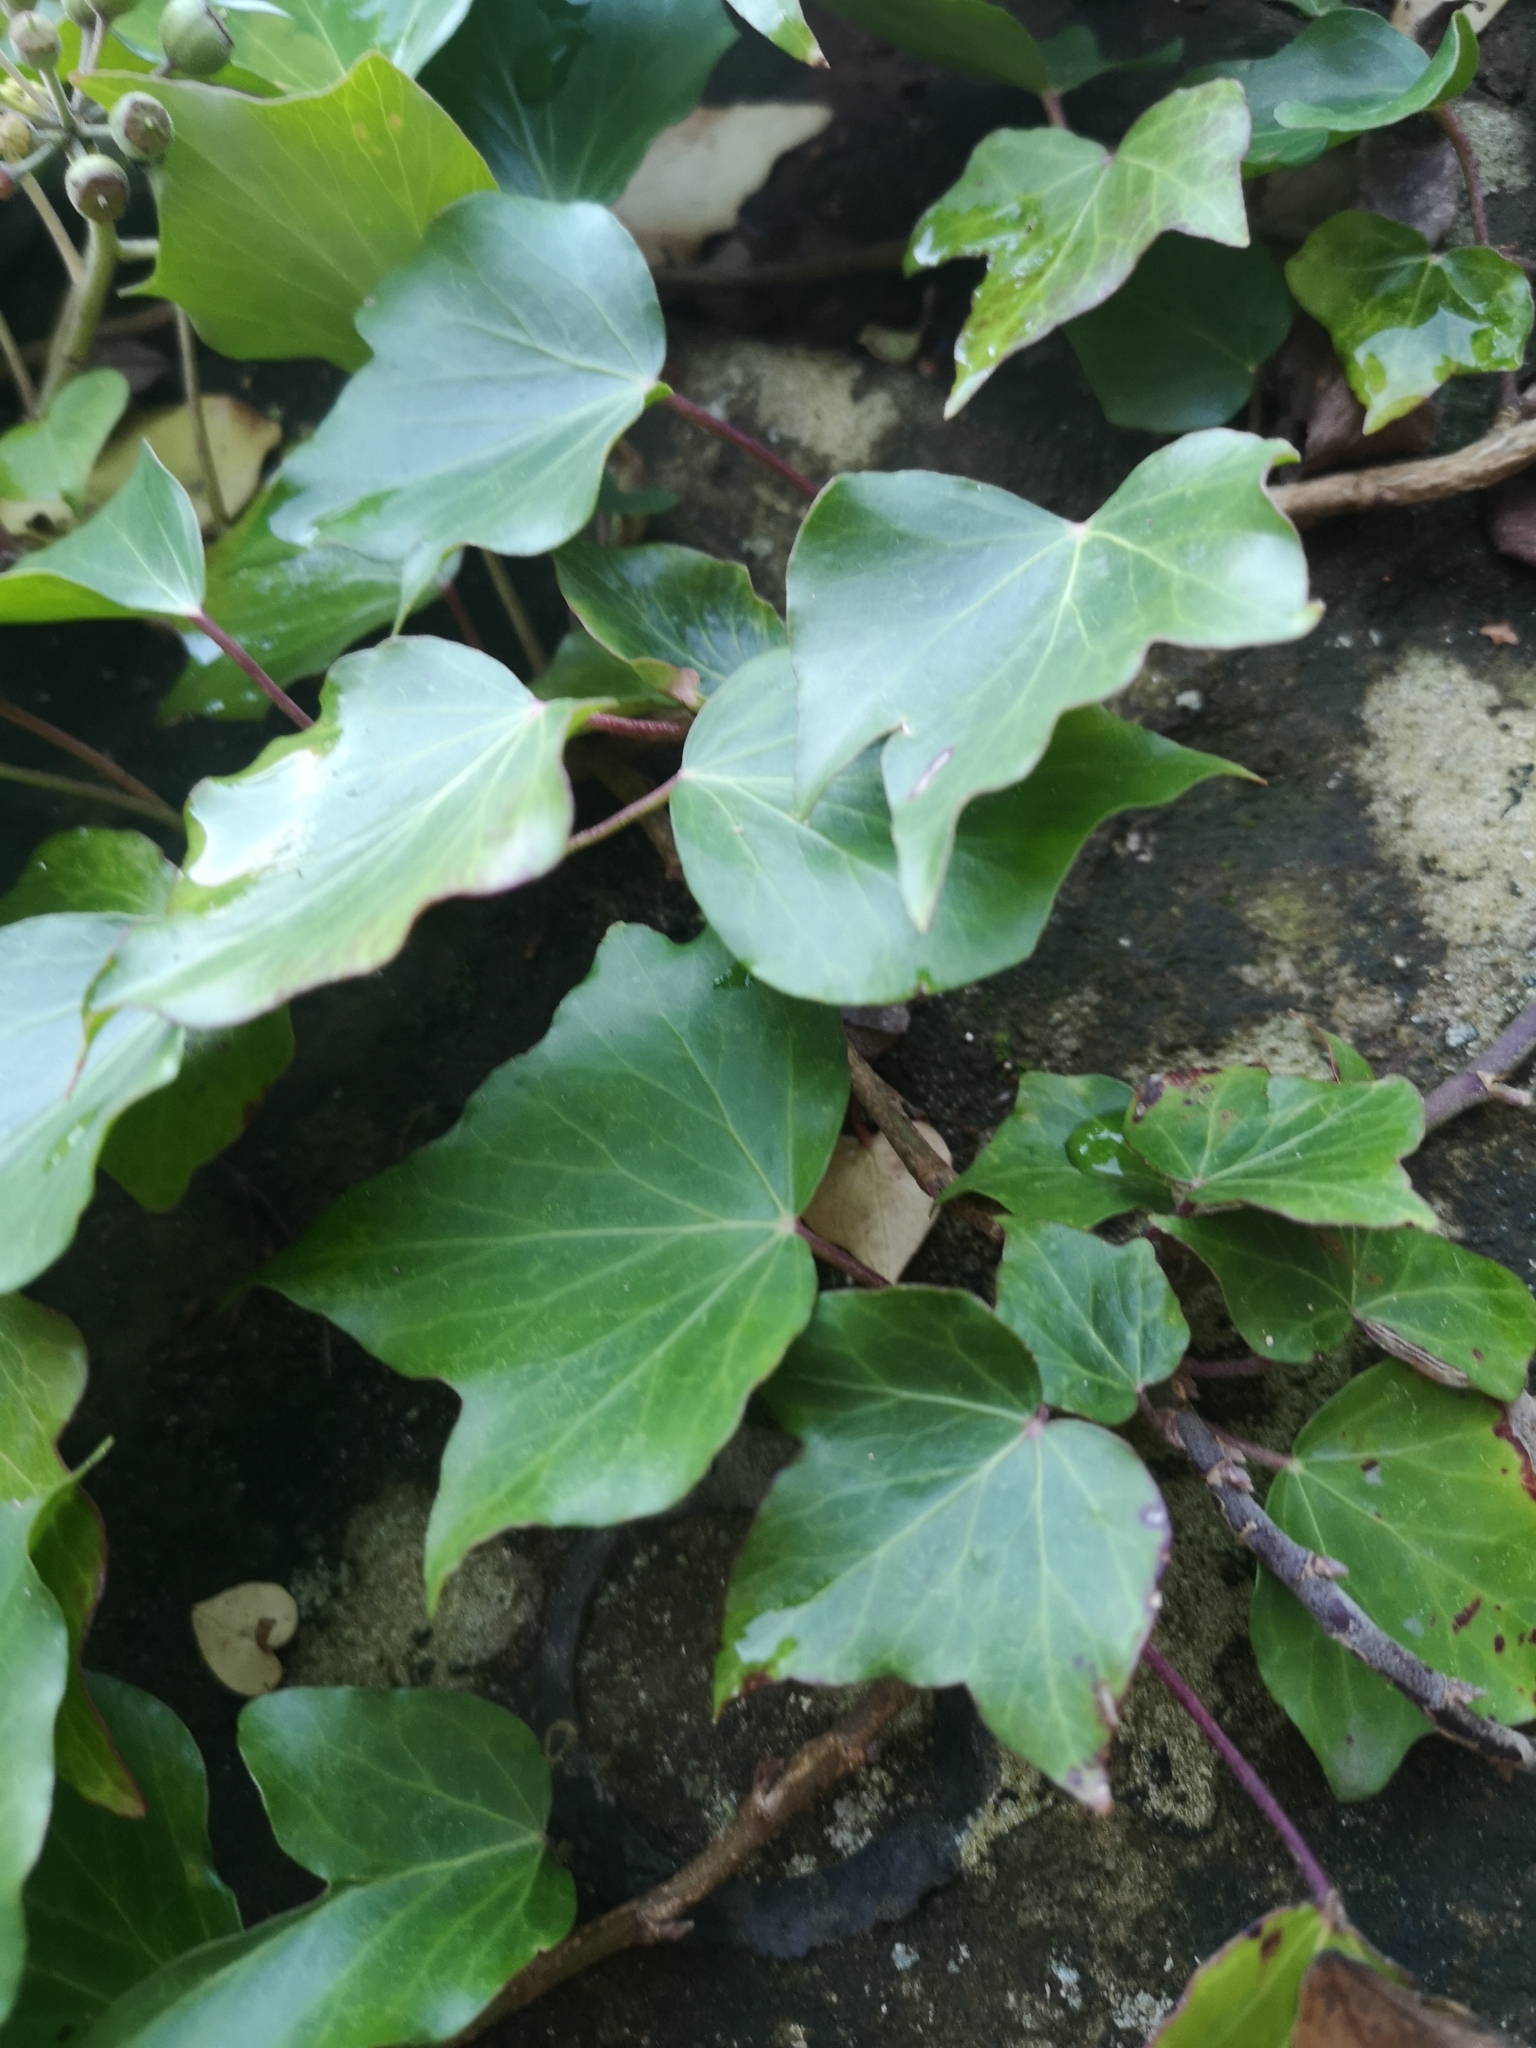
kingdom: Plantae
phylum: Tracheophyta
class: Magnoliopsida
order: Apiales
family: Araliaceae
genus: Hedera
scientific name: Hedera helix
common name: Ivy
